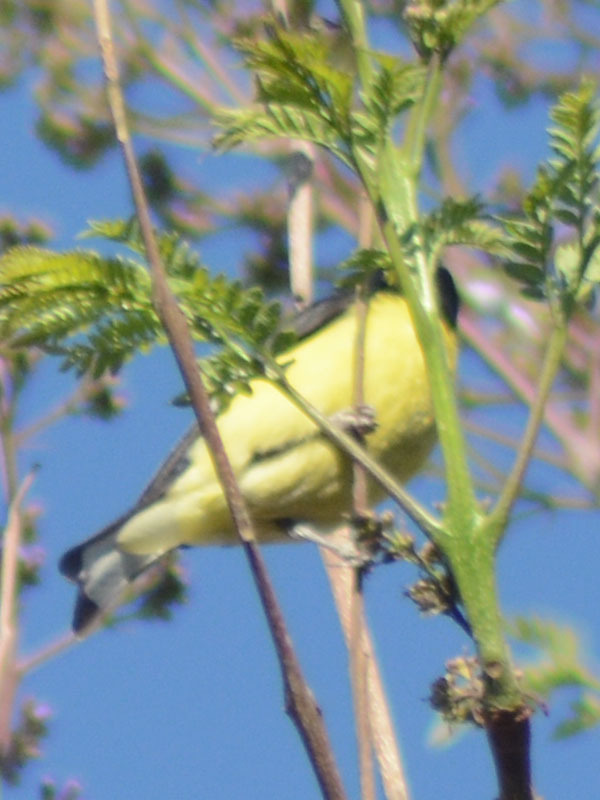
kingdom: Animalia
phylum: Chordata
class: Aves
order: Passeriformes
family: Fringillidae
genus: Spinus
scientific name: Spinus psaltria
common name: Lesser goldfinch
